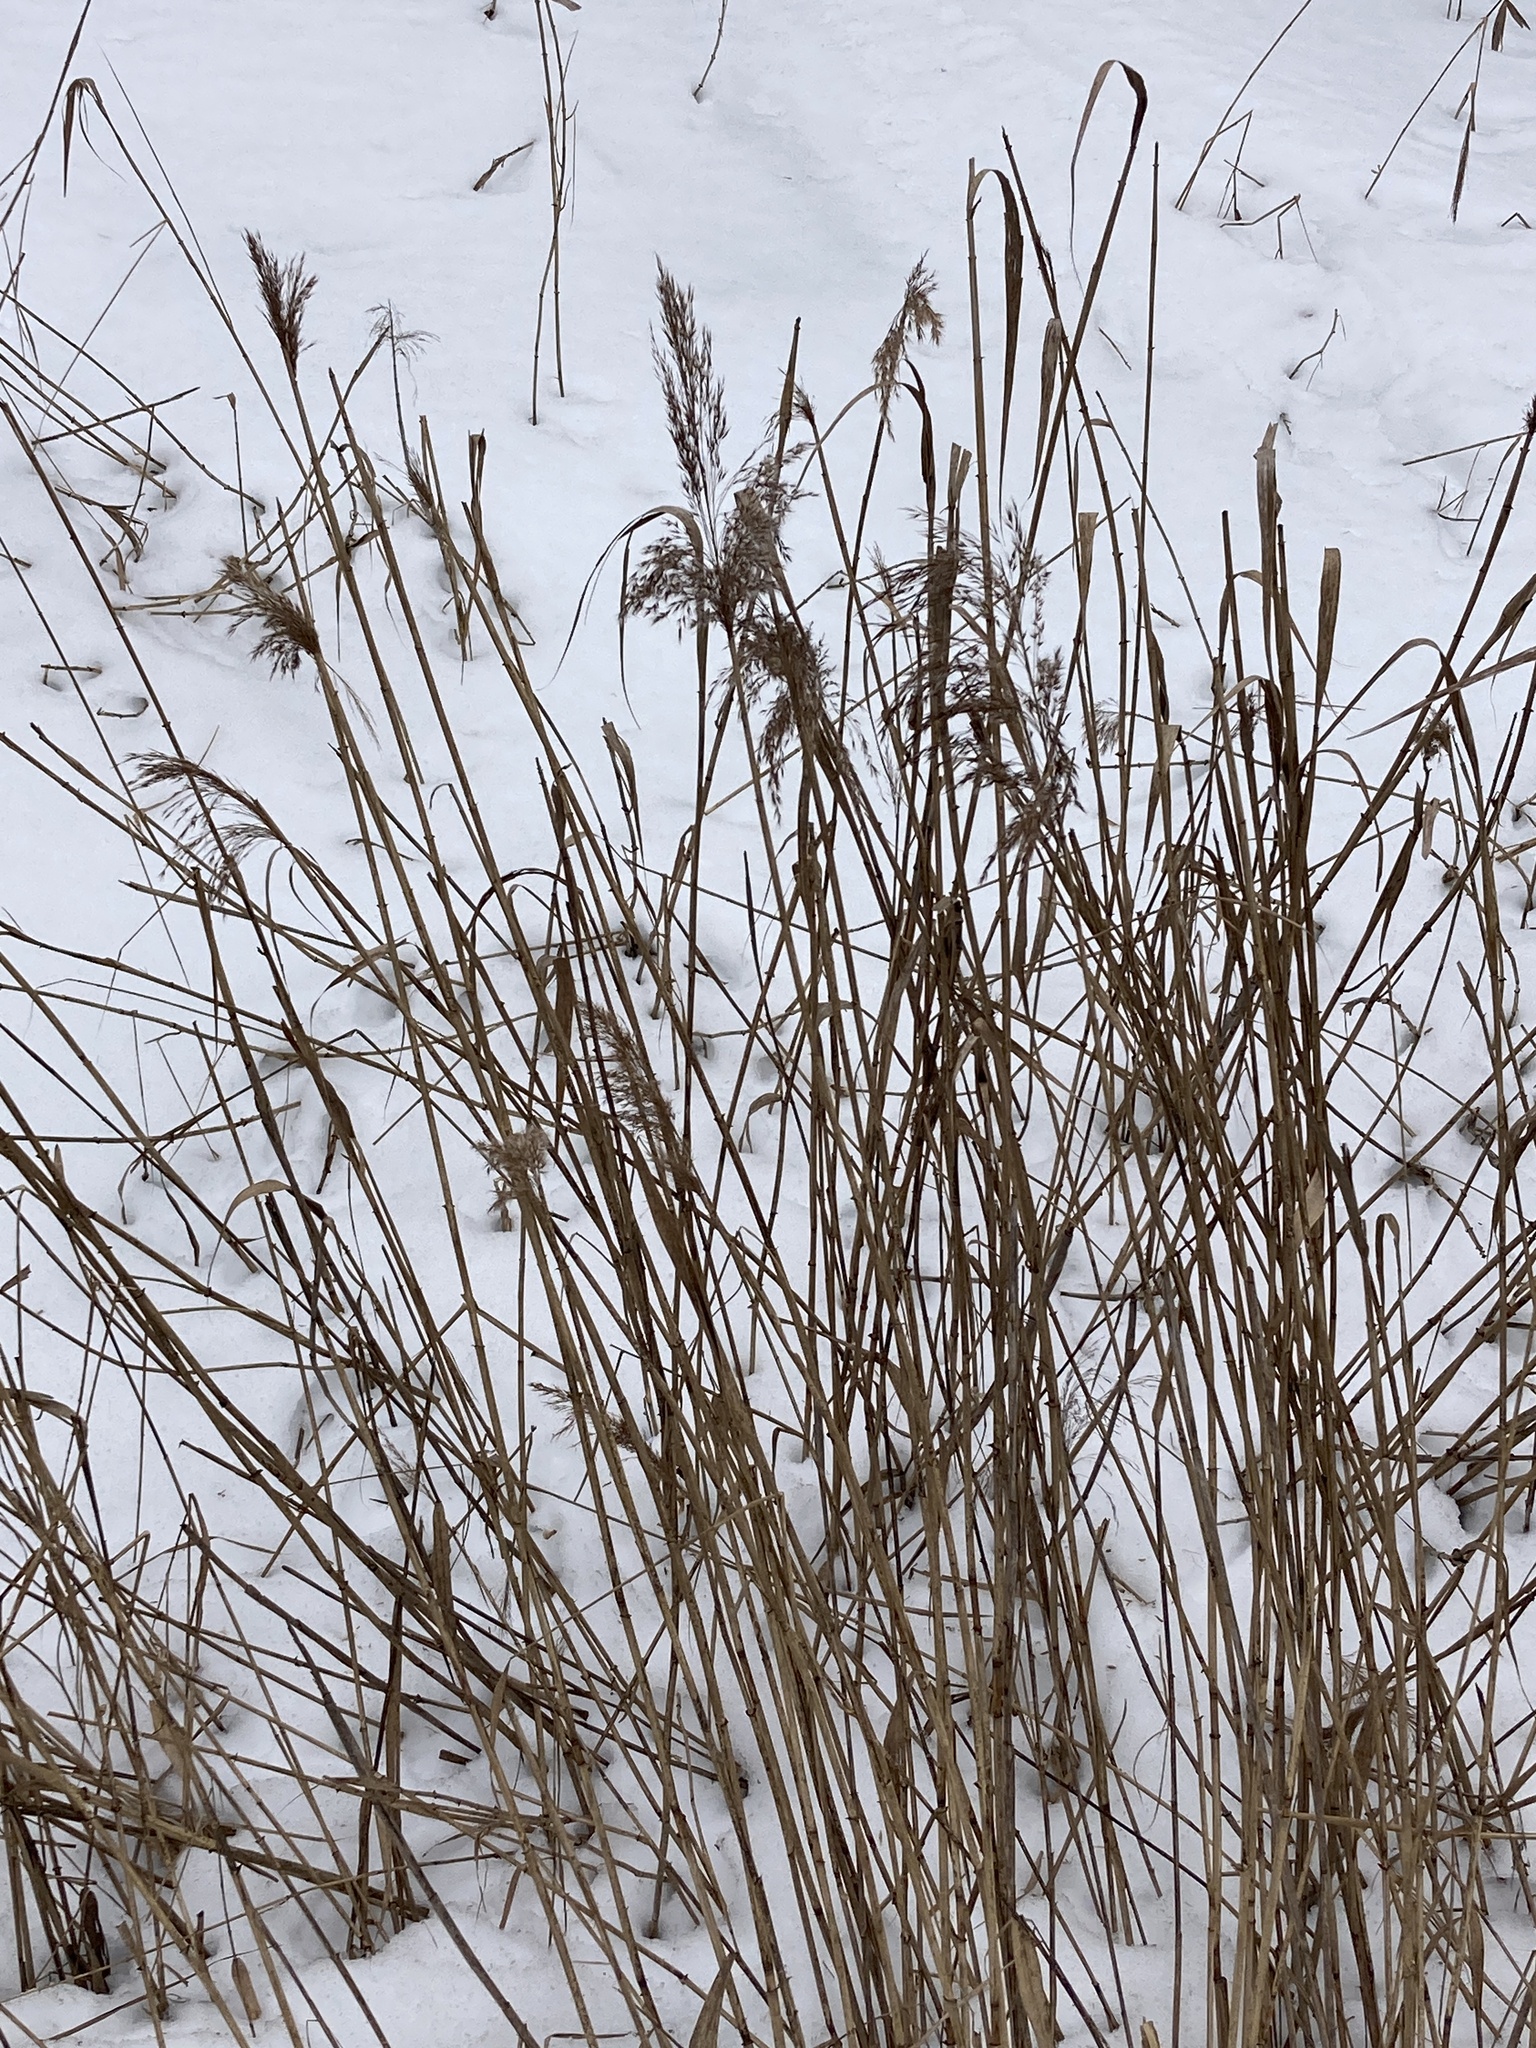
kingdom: Plantae
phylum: Tracheophyta
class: Liliopsida
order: Poales
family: Poaceae
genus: Phragmites
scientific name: Phragmites australis
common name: Common reed
